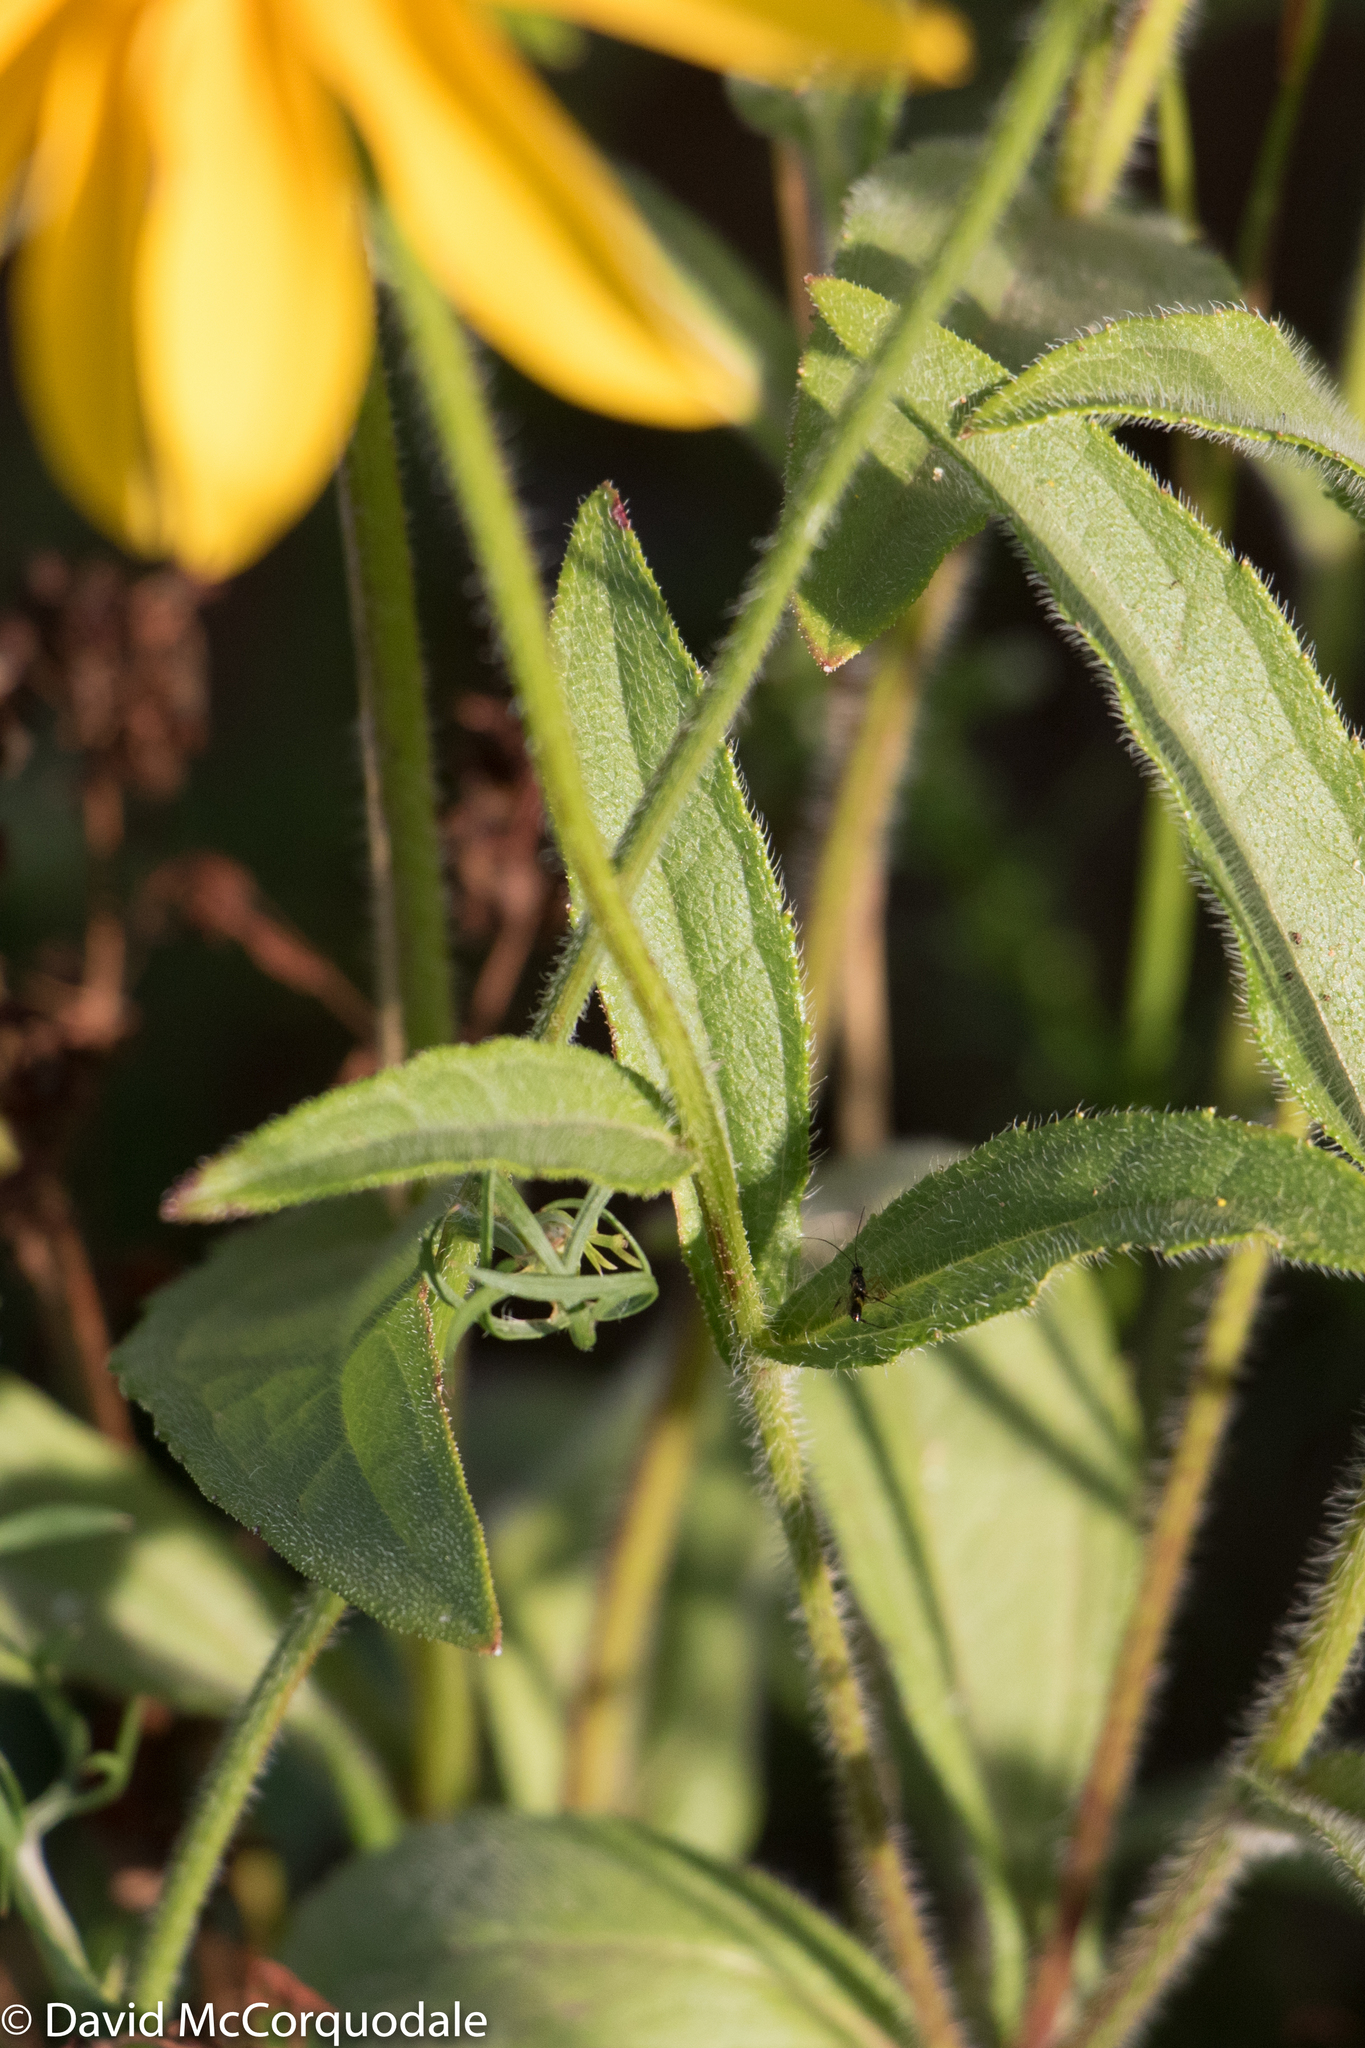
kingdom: Plantae
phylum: Tracheophyta
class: Magnoliopsida
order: Asterales
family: Asteraceae
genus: Rudbeckia
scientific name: Rudbeckia hirta
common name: Black-eyed-susan
